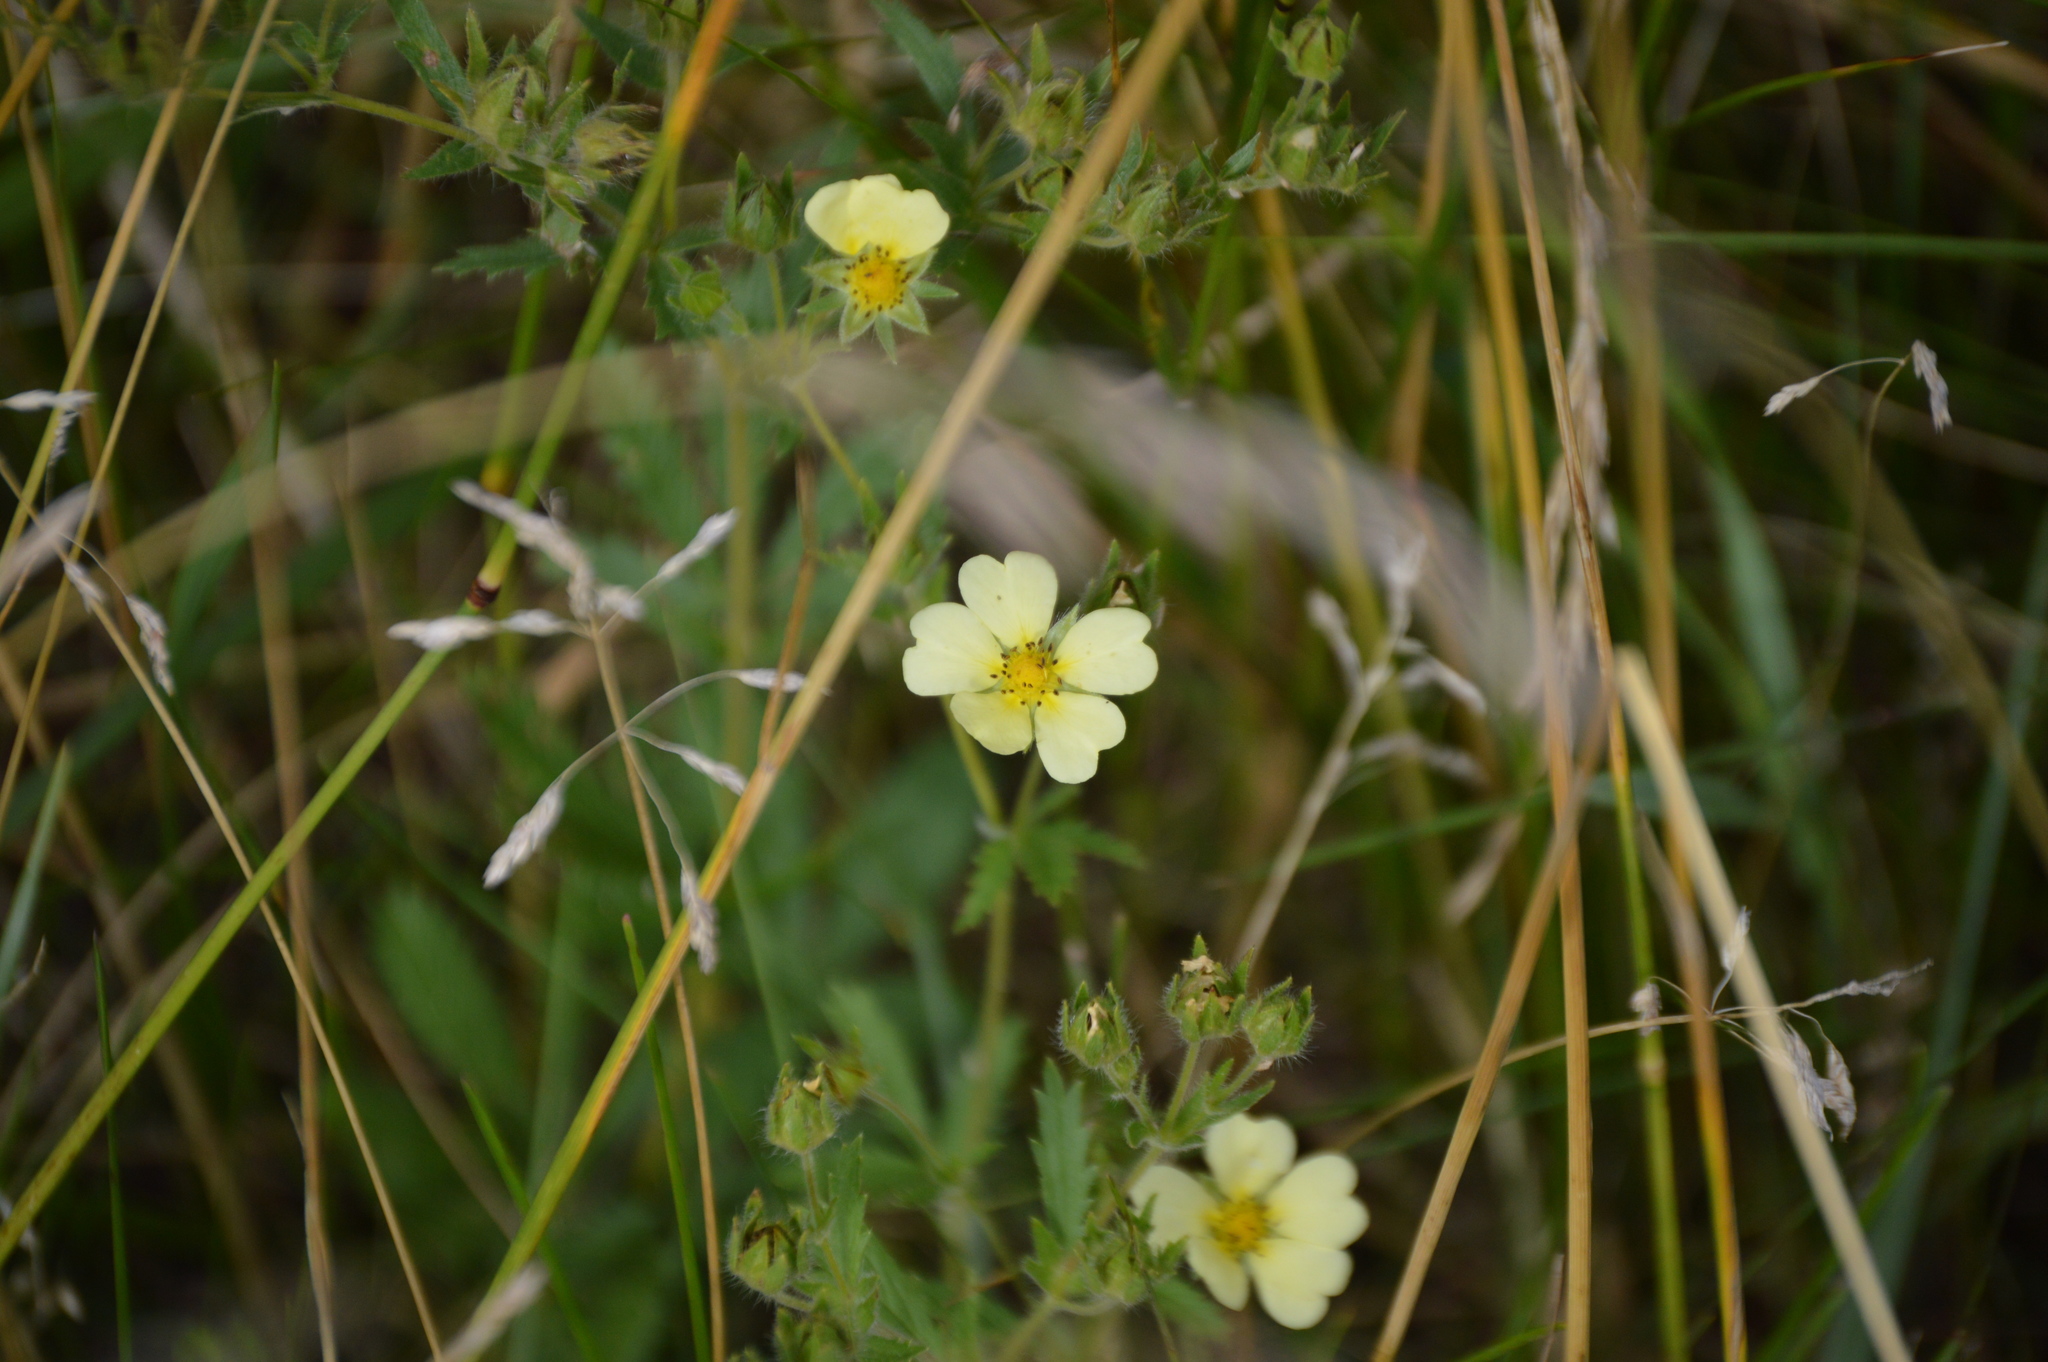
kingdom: Plantae
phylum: Tracheophyta
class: Magnoliopsida
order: Rosales
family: Rosaceae
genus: Potentilla
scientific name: Potentilla recta
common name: Sulphur cinquefoil
